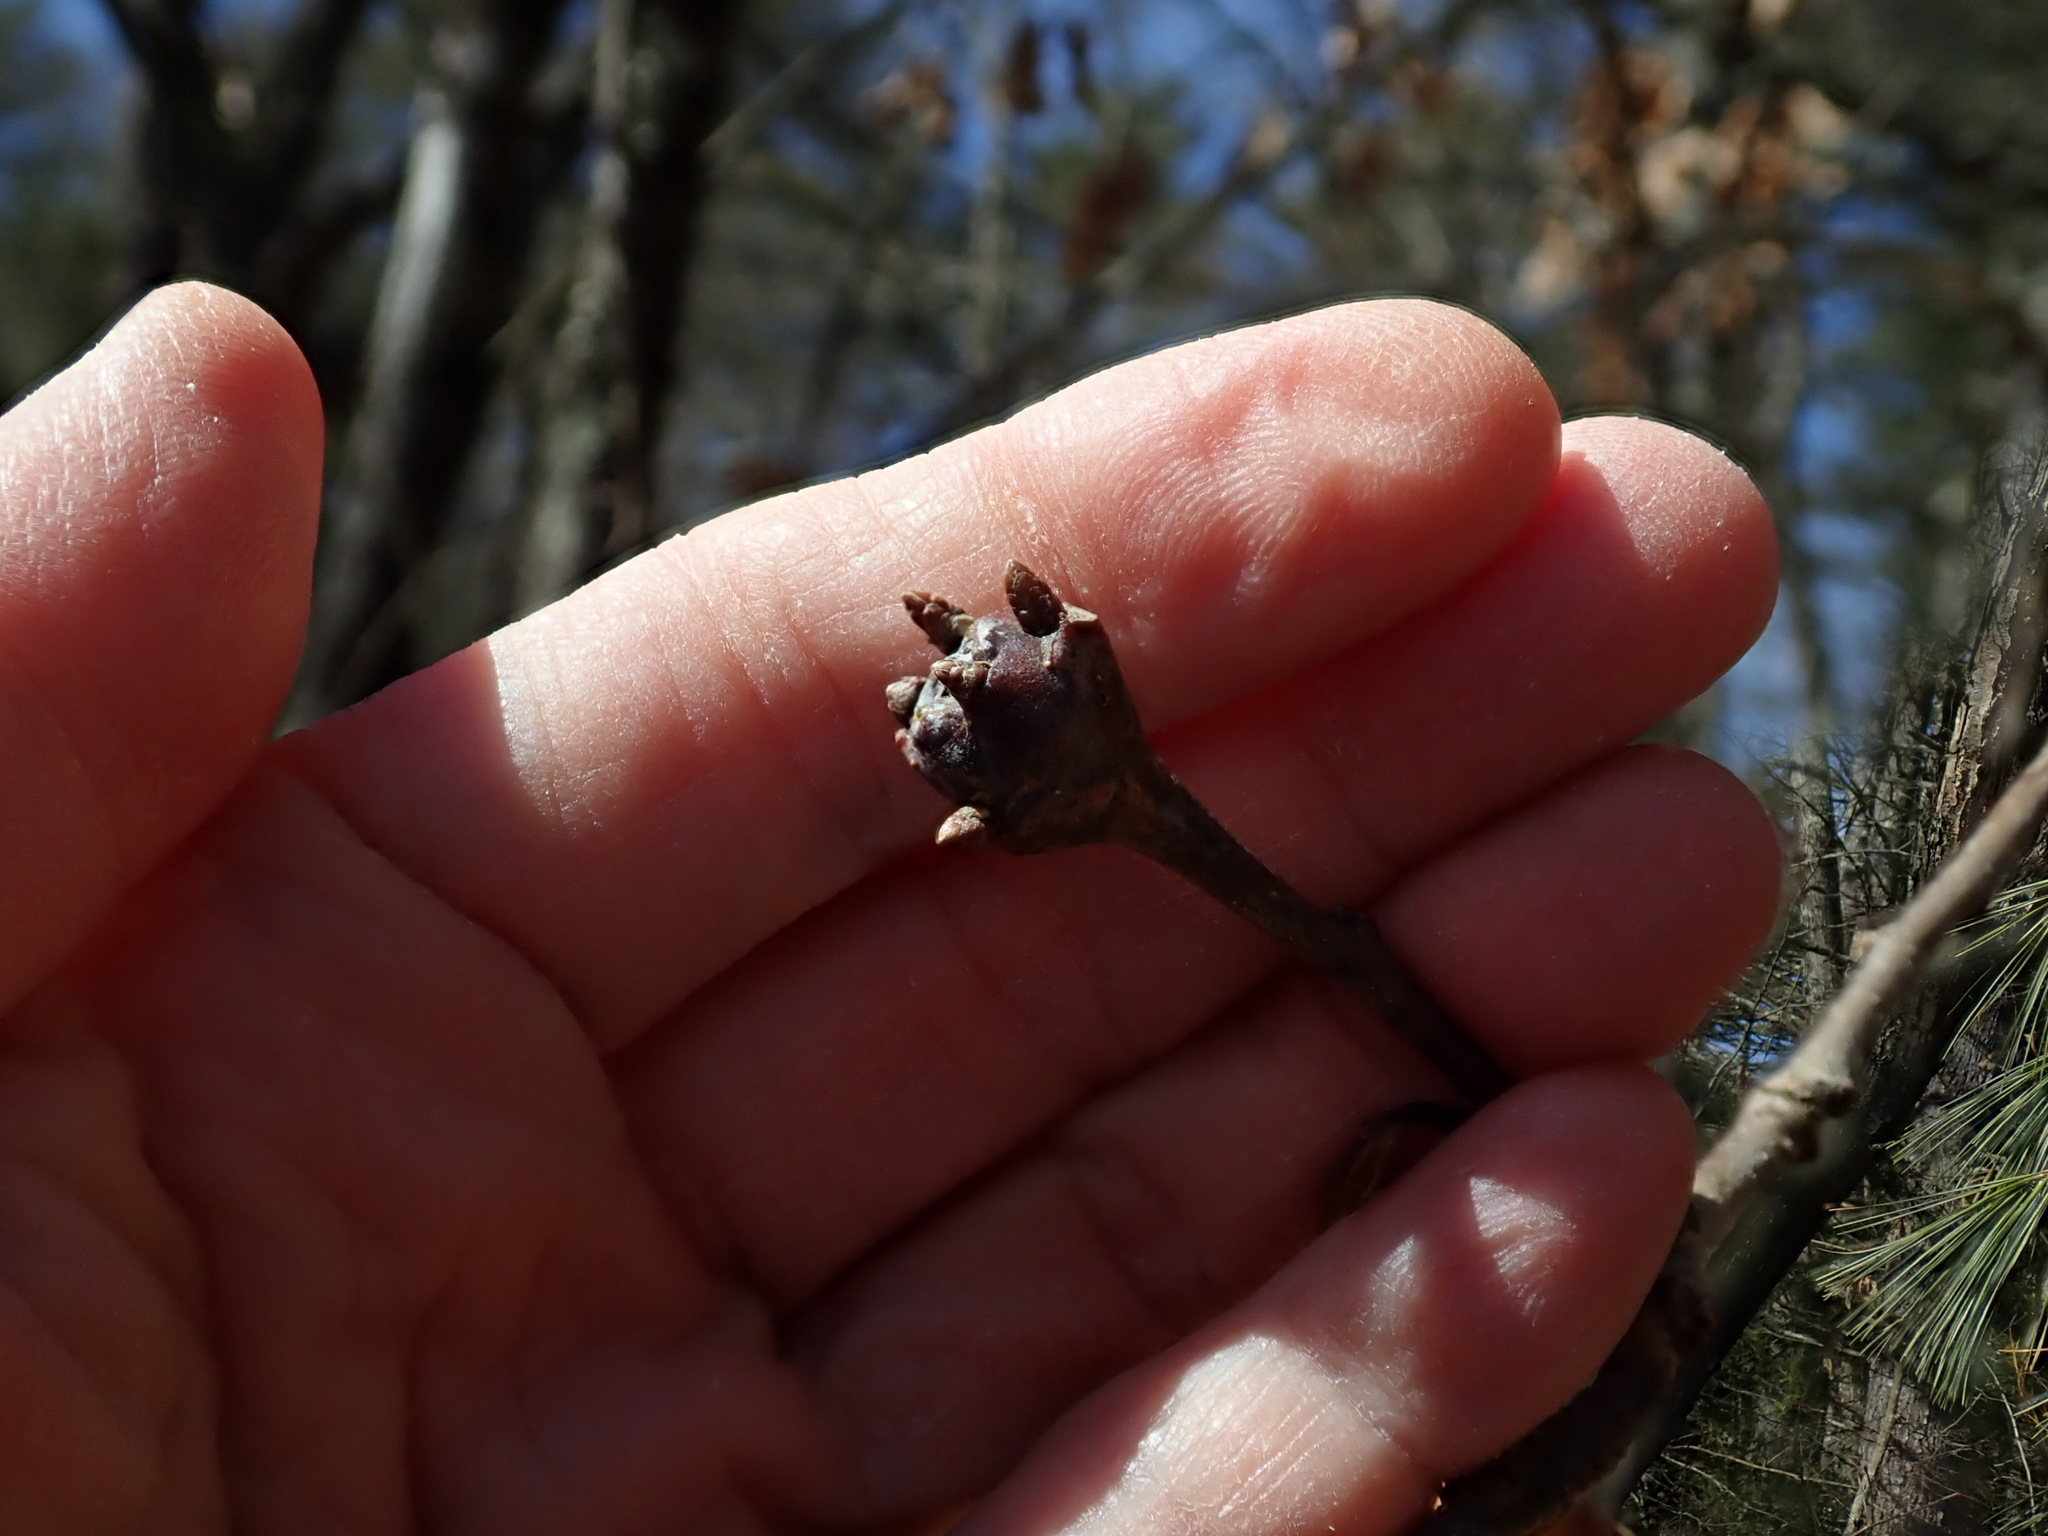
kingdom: Animalia
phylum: Arthropoda
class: Insecta
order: Hymenoptera
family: Cynipidae
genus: Callirhytis
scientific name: Callirhytis clavula
